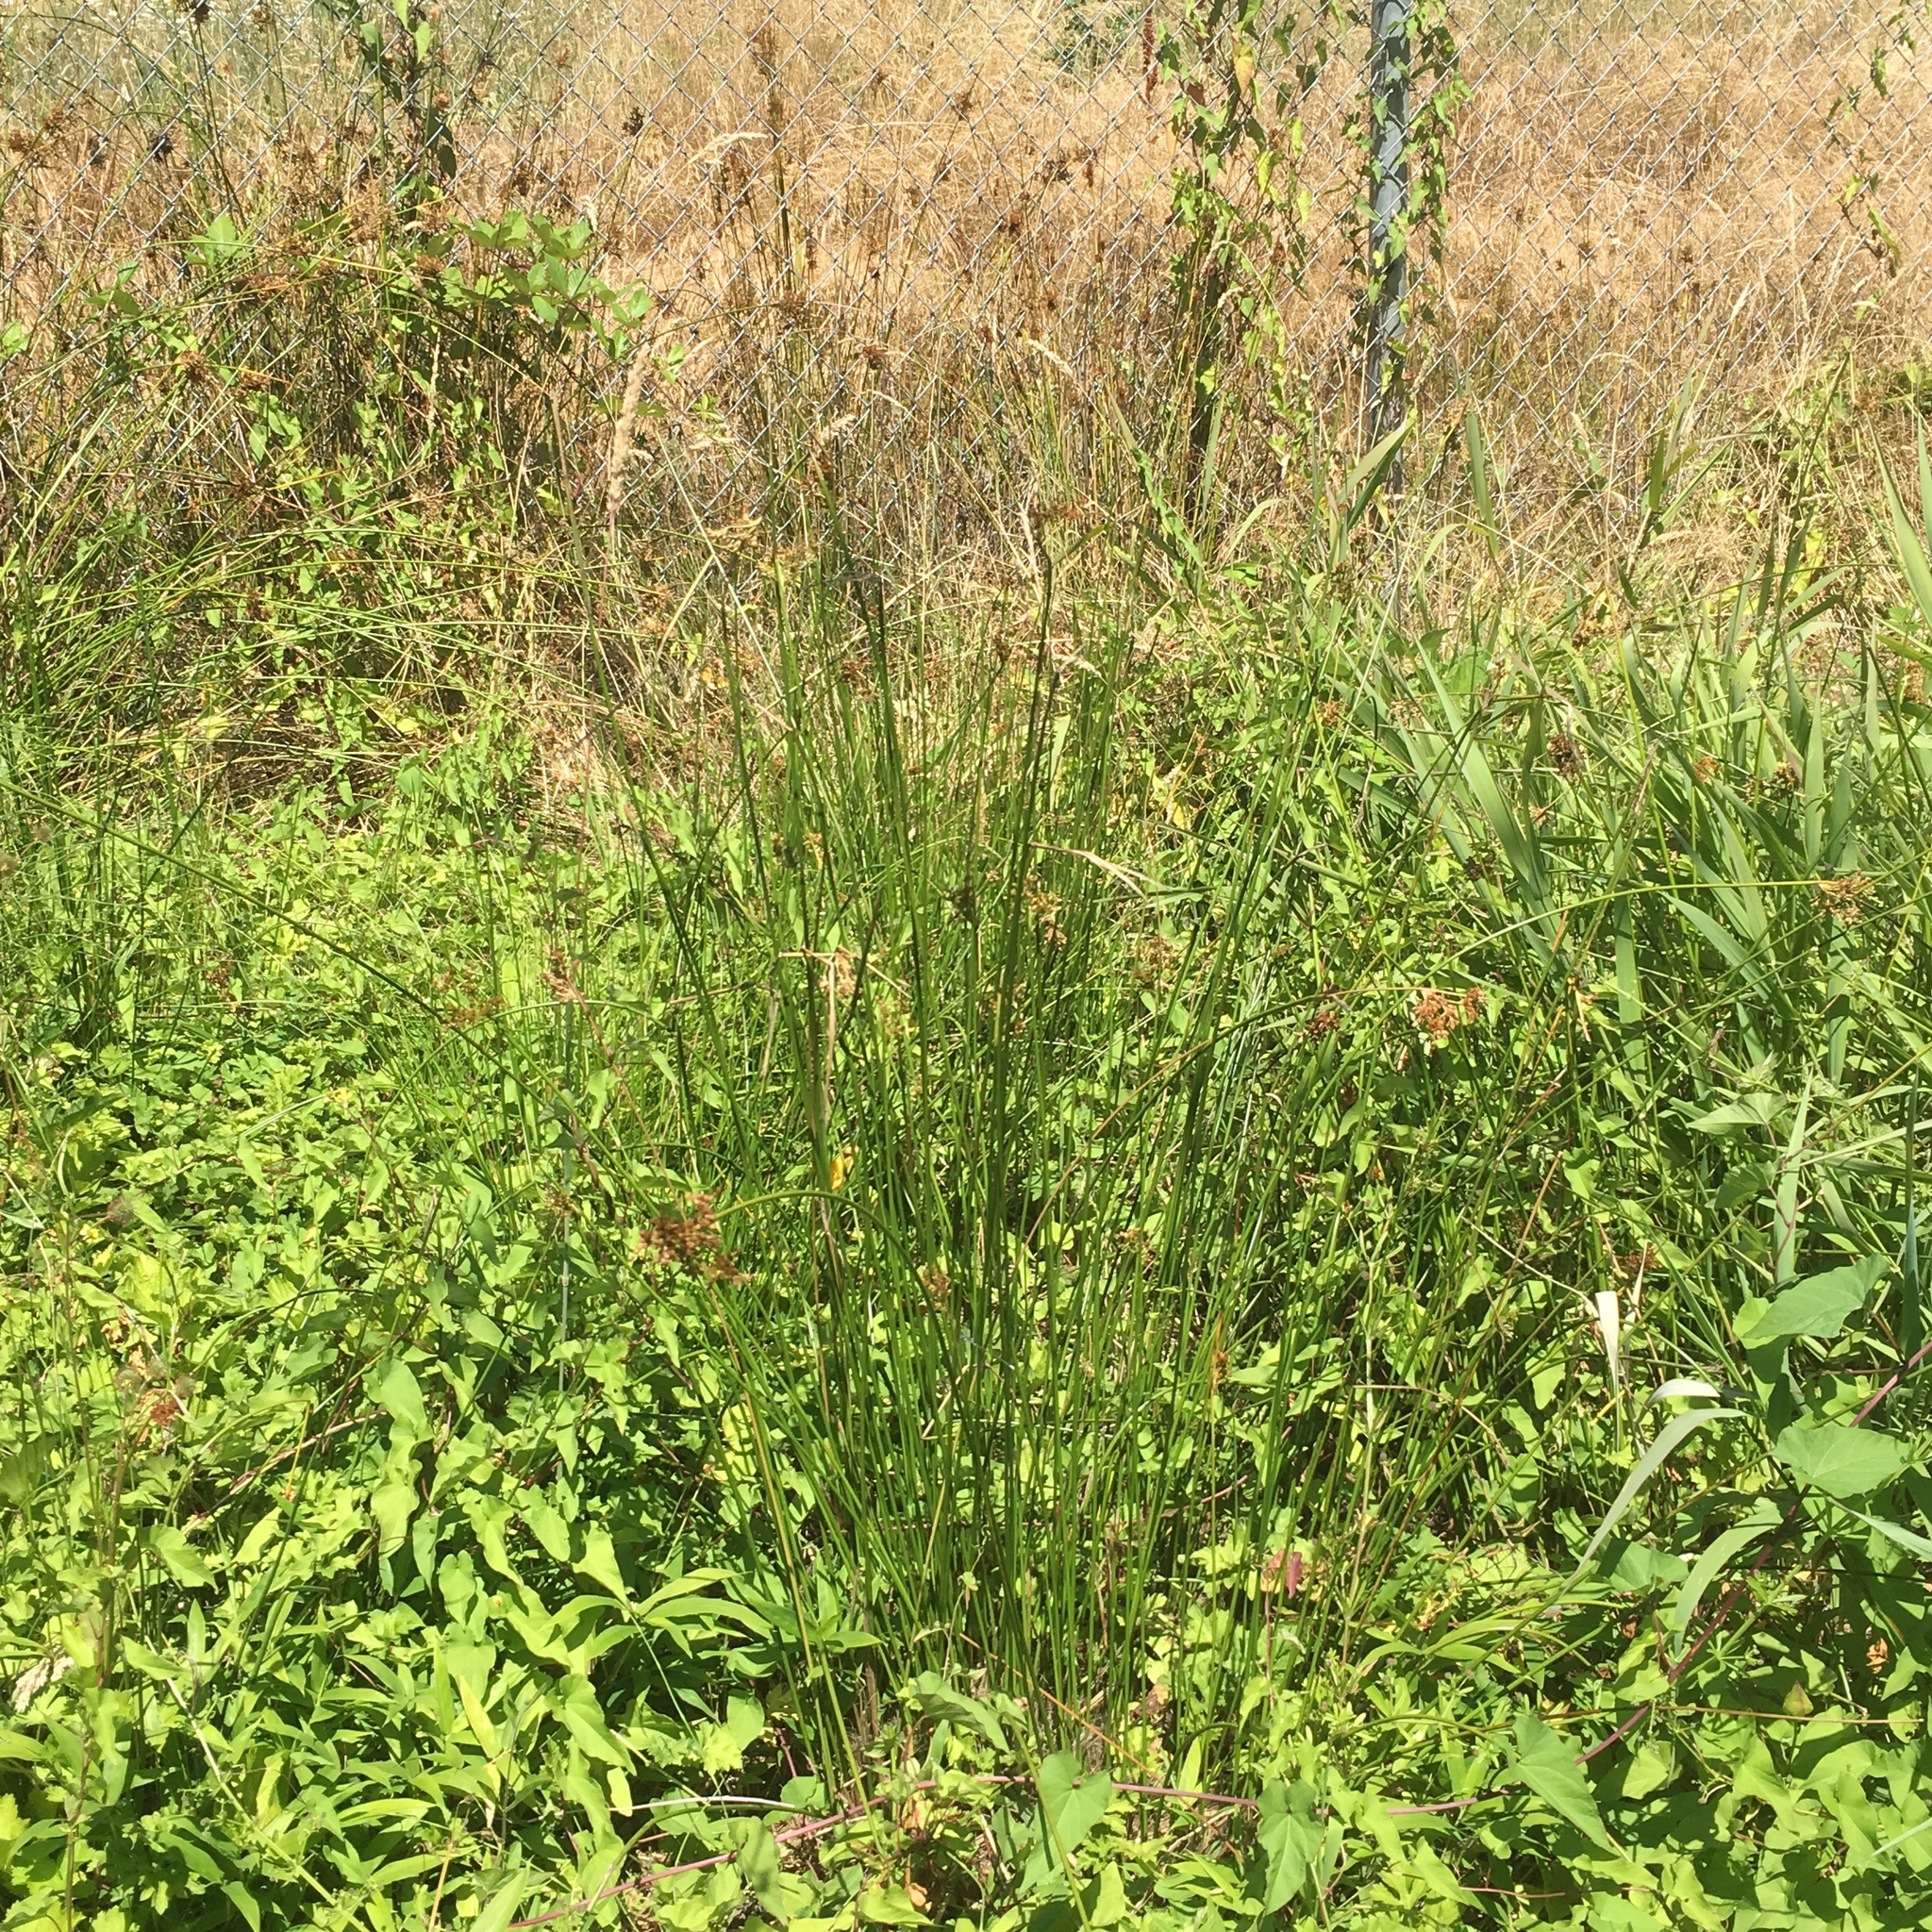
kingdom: Plantae
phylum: Tracheophyta
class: Liliopsida
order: Poales
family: Juncaceae
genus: Juncus
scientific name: Juncus effusus
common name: Soft rush
